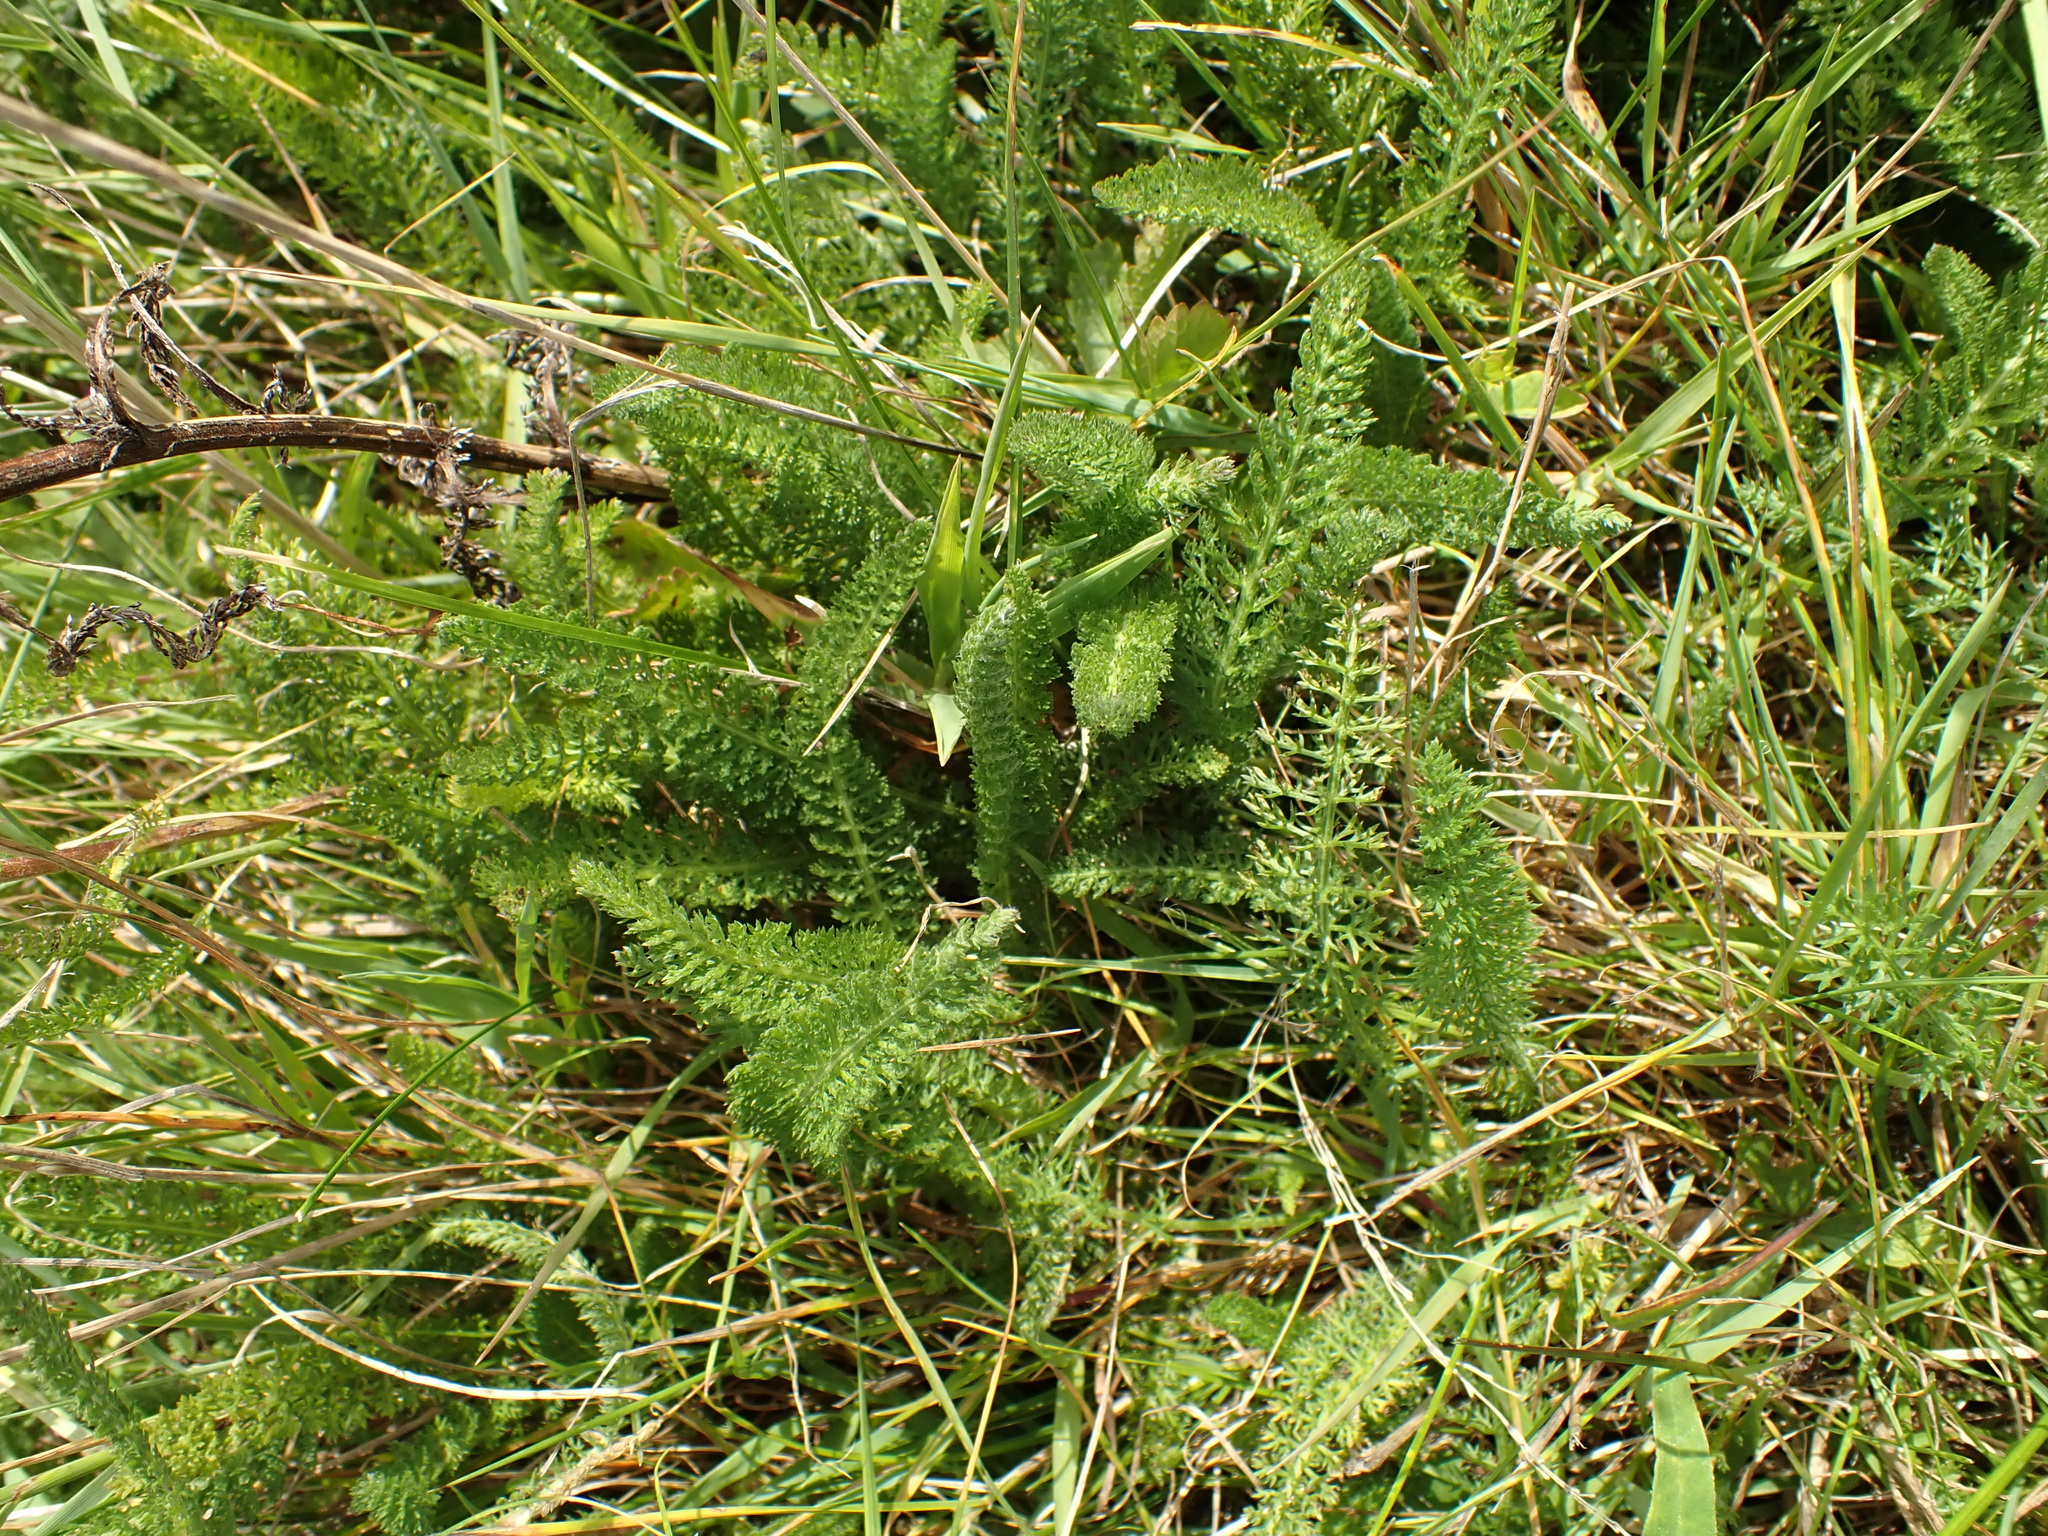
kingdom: Plantae
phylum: Tracheophyta
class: Magnoliopsida
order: Asterales
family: Asteraceae
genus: Achillea
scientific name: Achillea millefolium
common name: Yarrow
